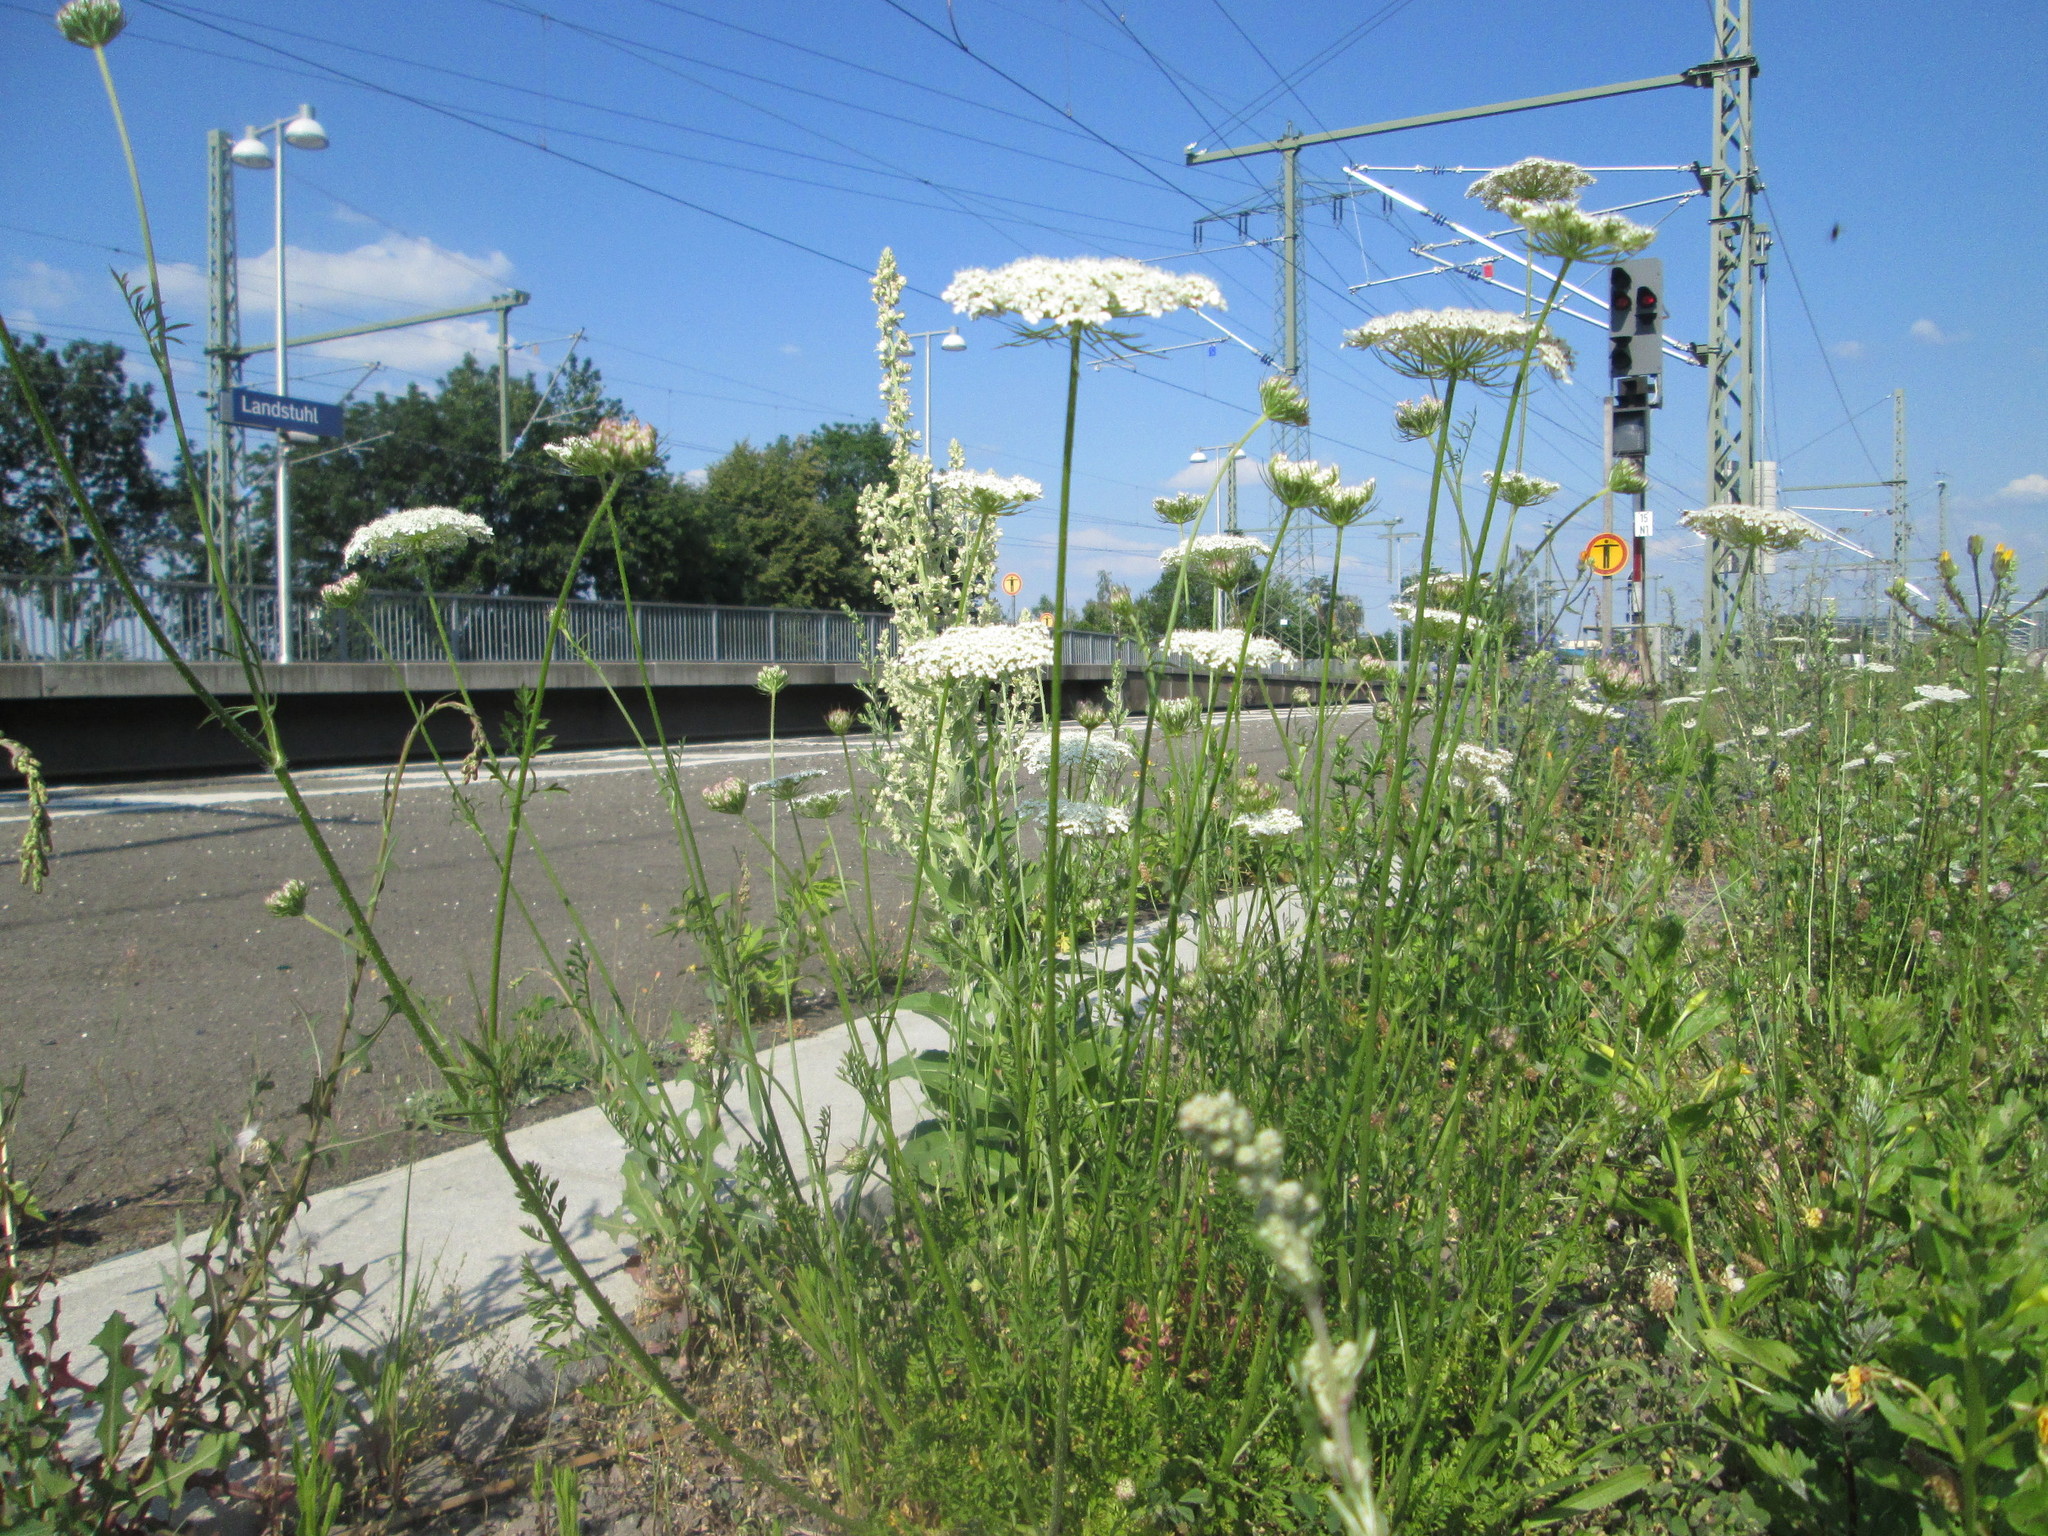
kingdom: Plantae
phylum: Tracheophyta
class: Magnoliopsida
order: Apiales
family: Apiaceae
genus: Daucus
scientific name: Daucus carota
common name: Wild carrot
